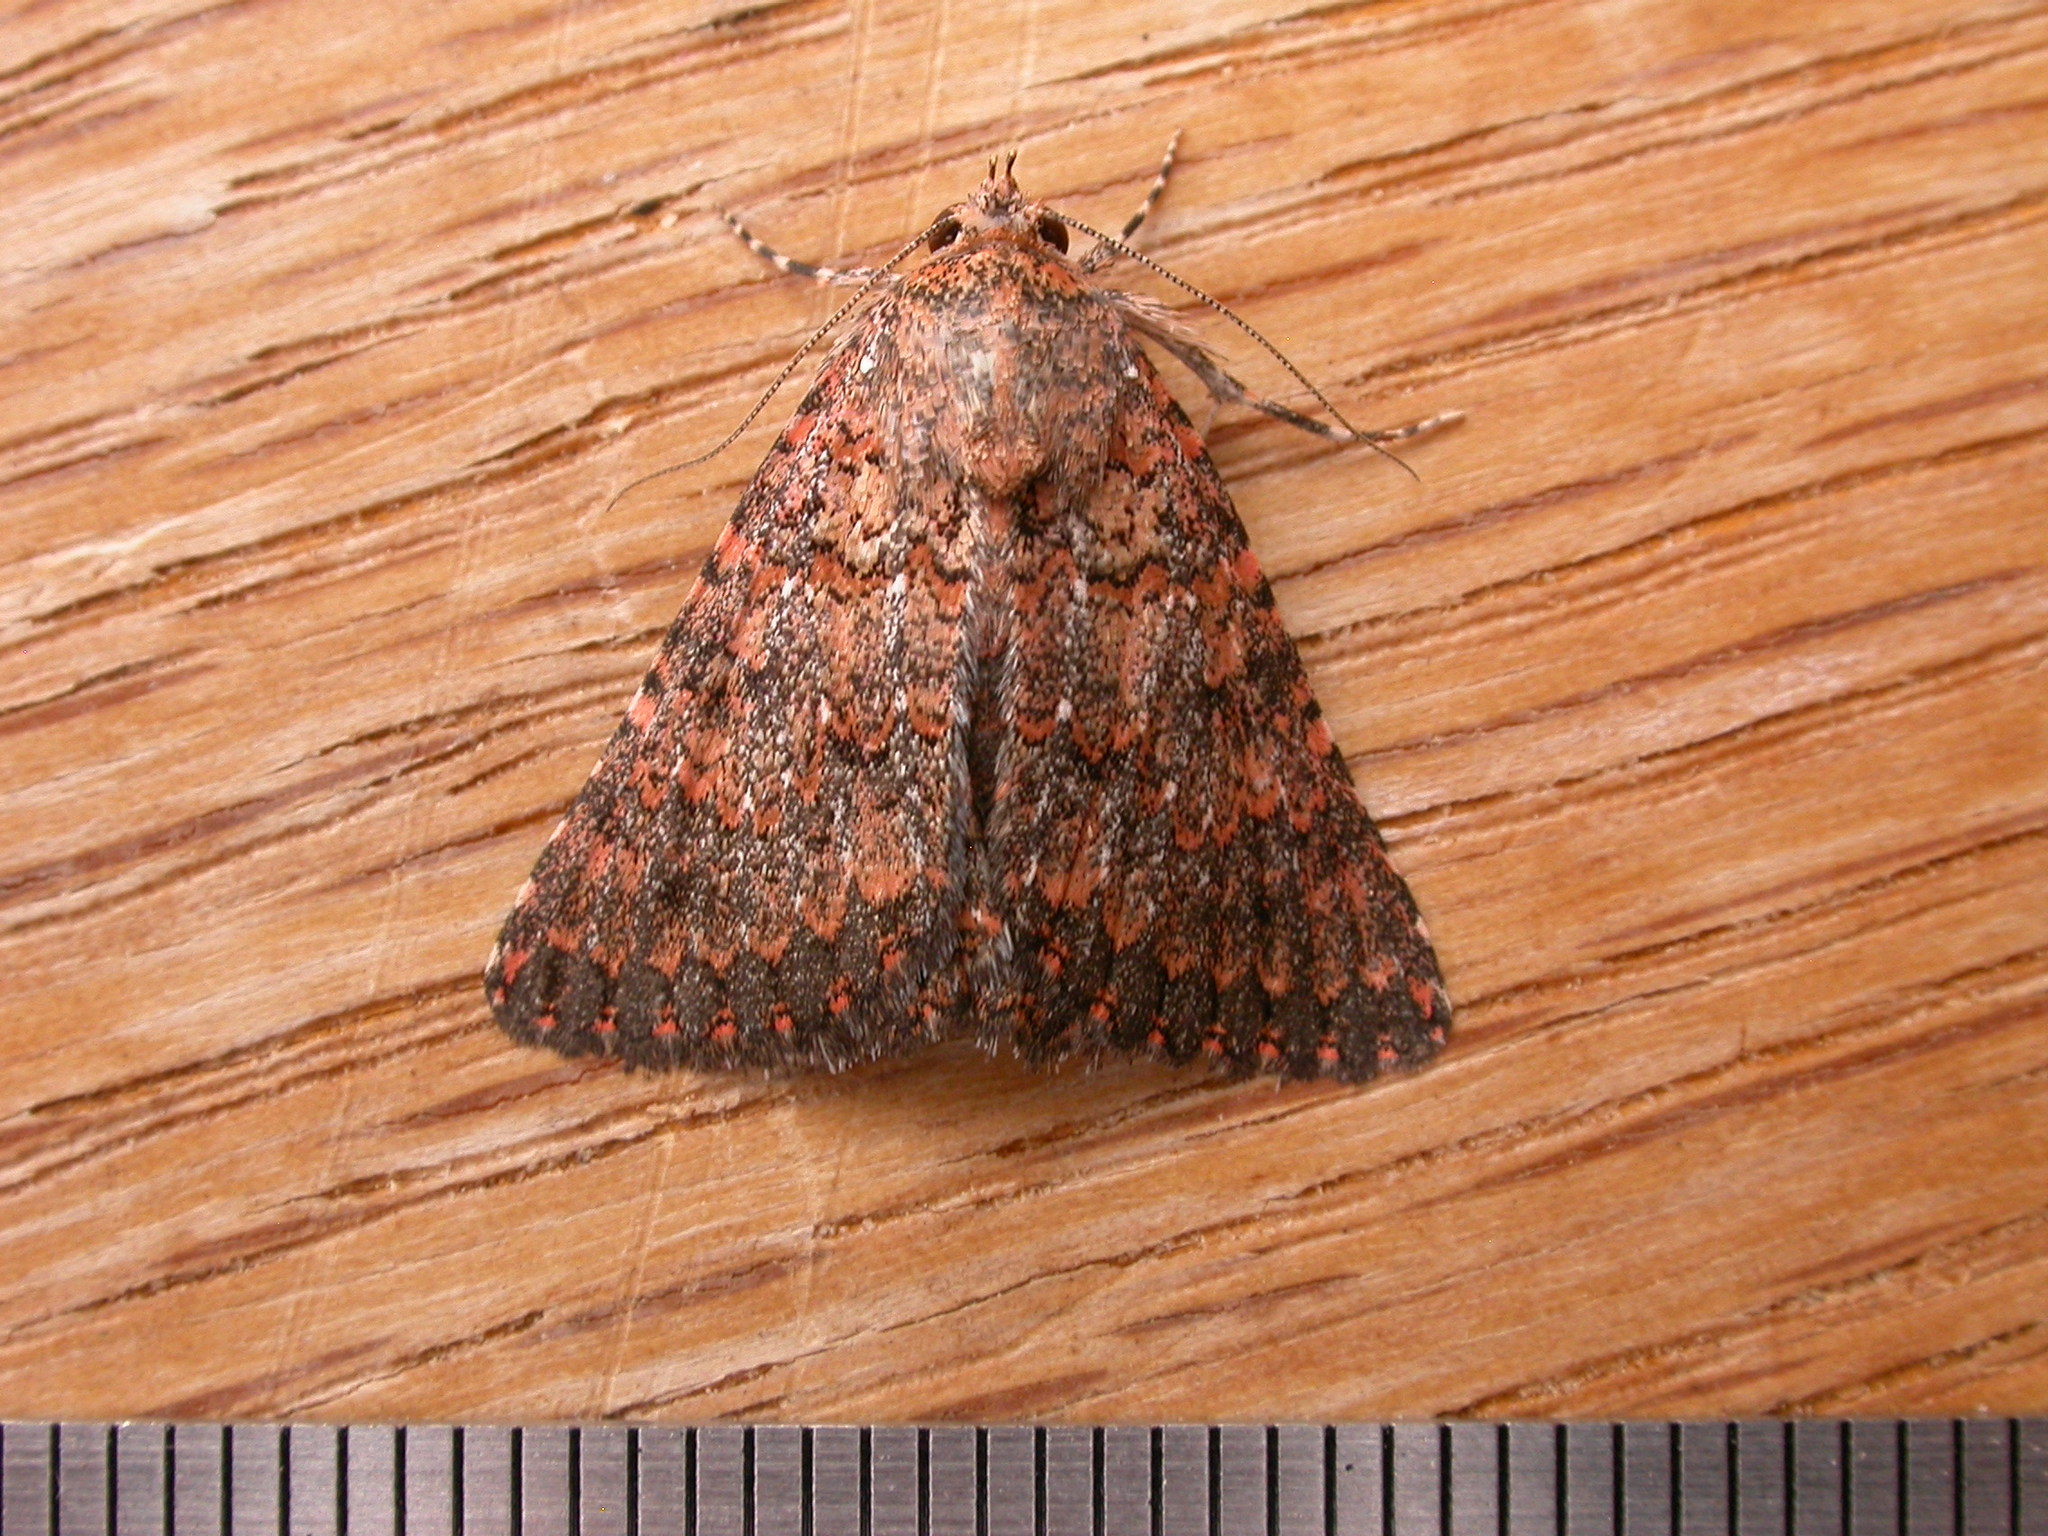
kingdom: Animalia
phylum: Arthropoda
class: Insecta
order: Lepidoptera
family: Erebidae
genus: Praxis
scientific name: Praxis marmarinopa
